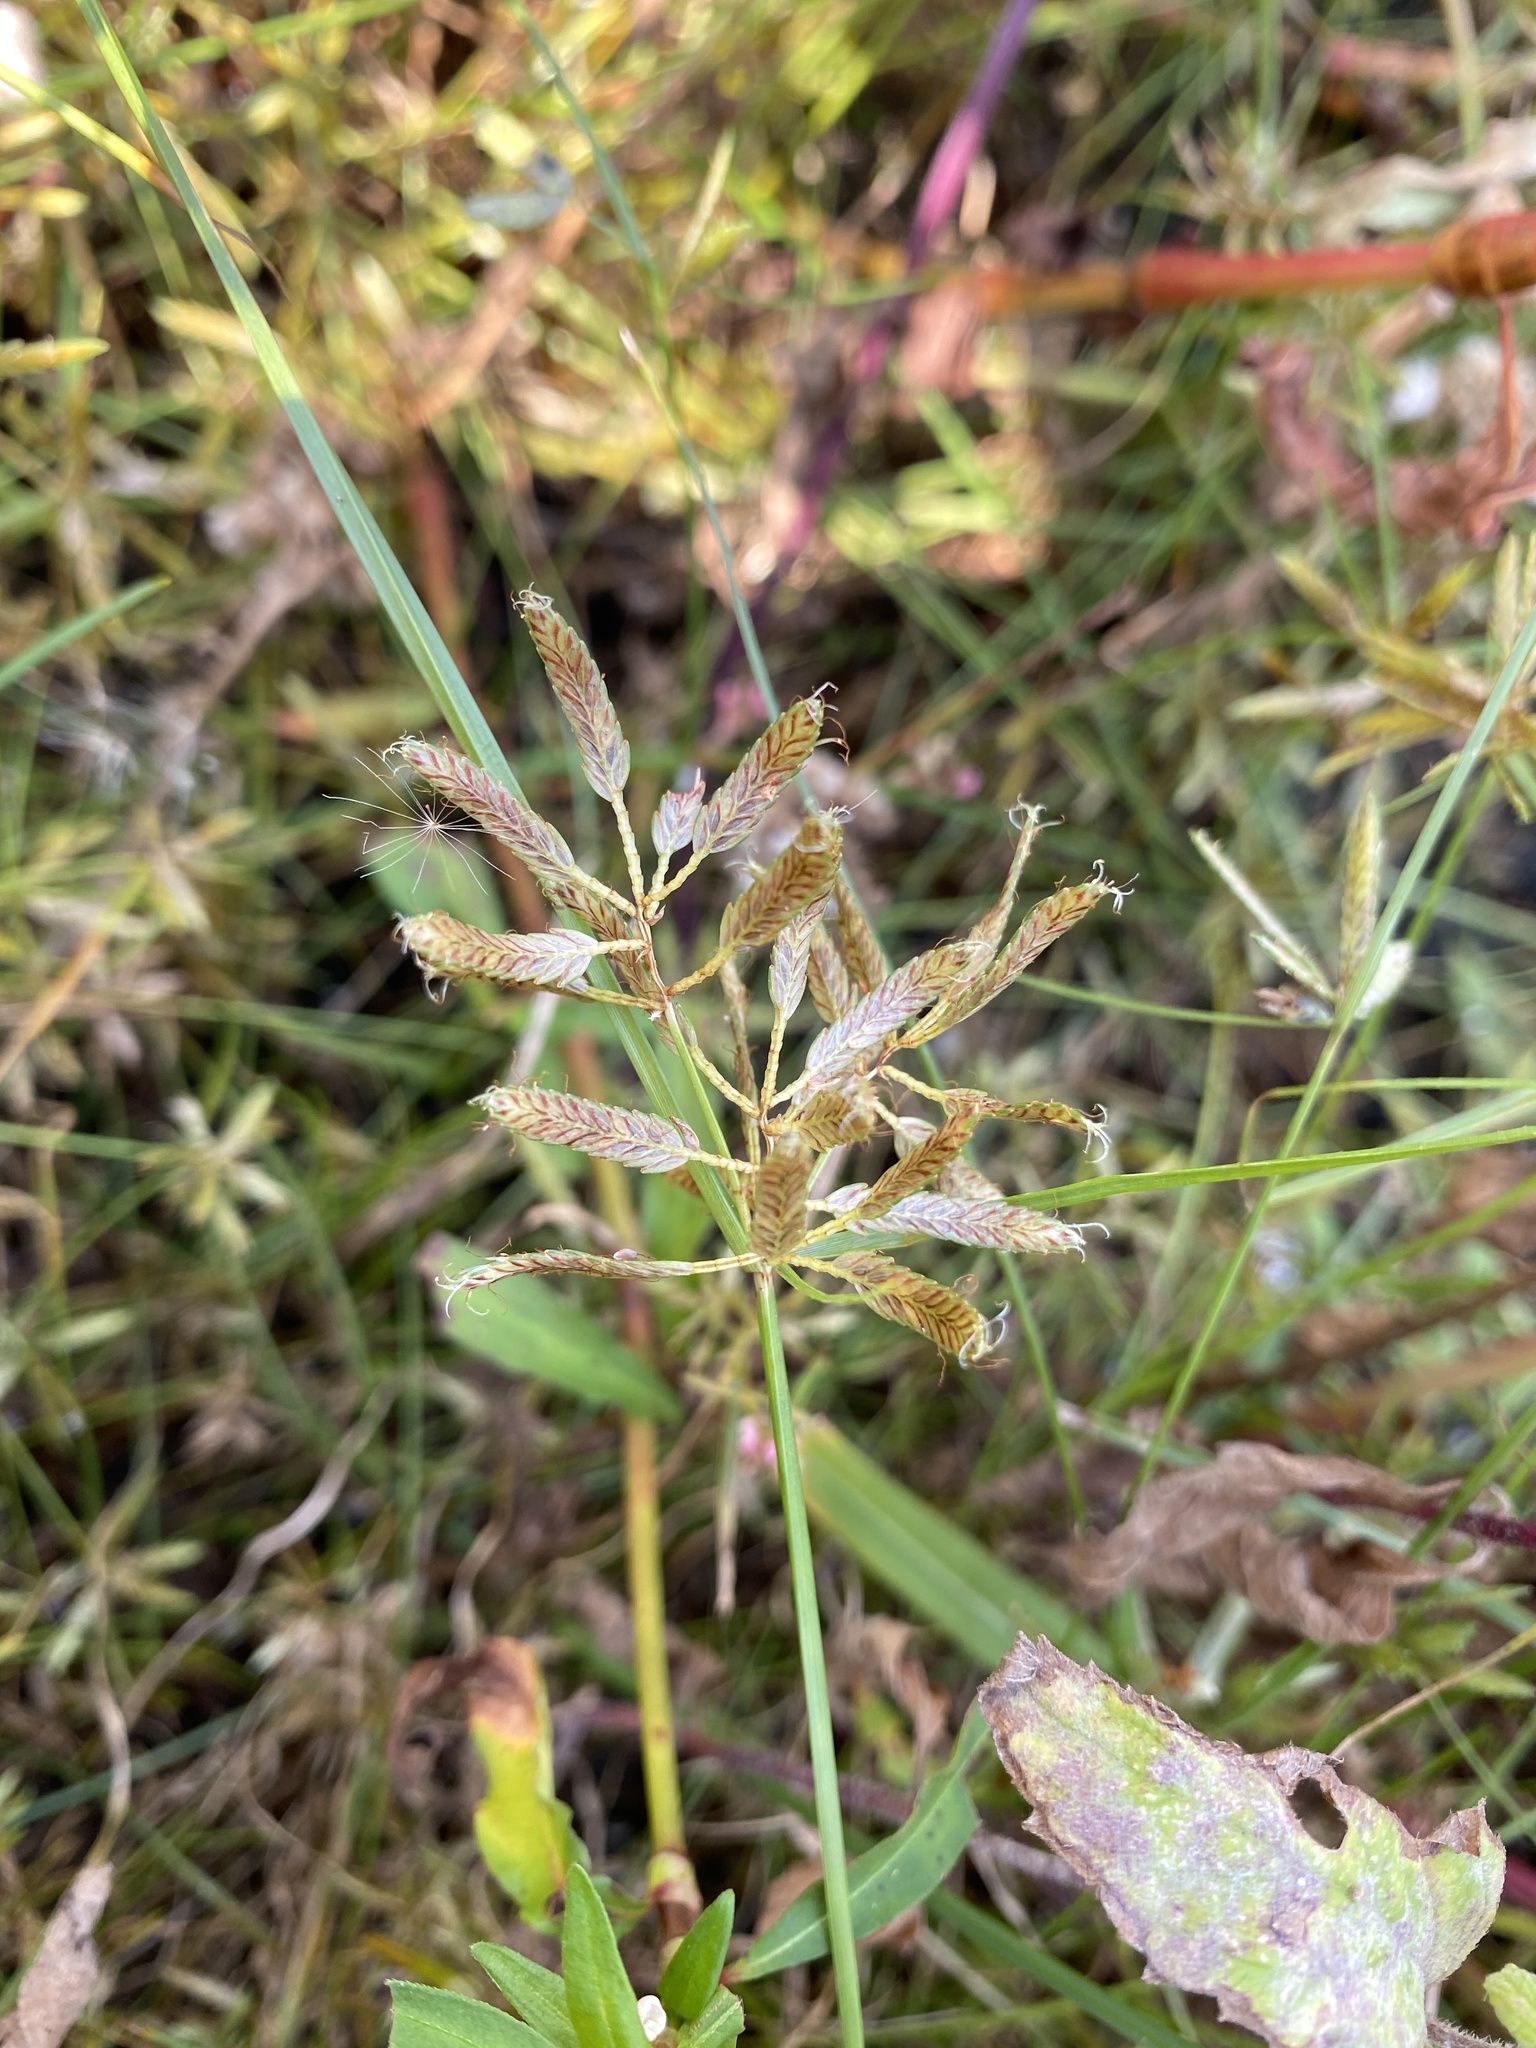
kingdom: Plantae
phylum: Tracheophyta
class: Liliopsida
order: Poales
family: Cyperaceae
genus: Cyperus
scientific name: Cyperus diandrus
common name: Low cyperus
